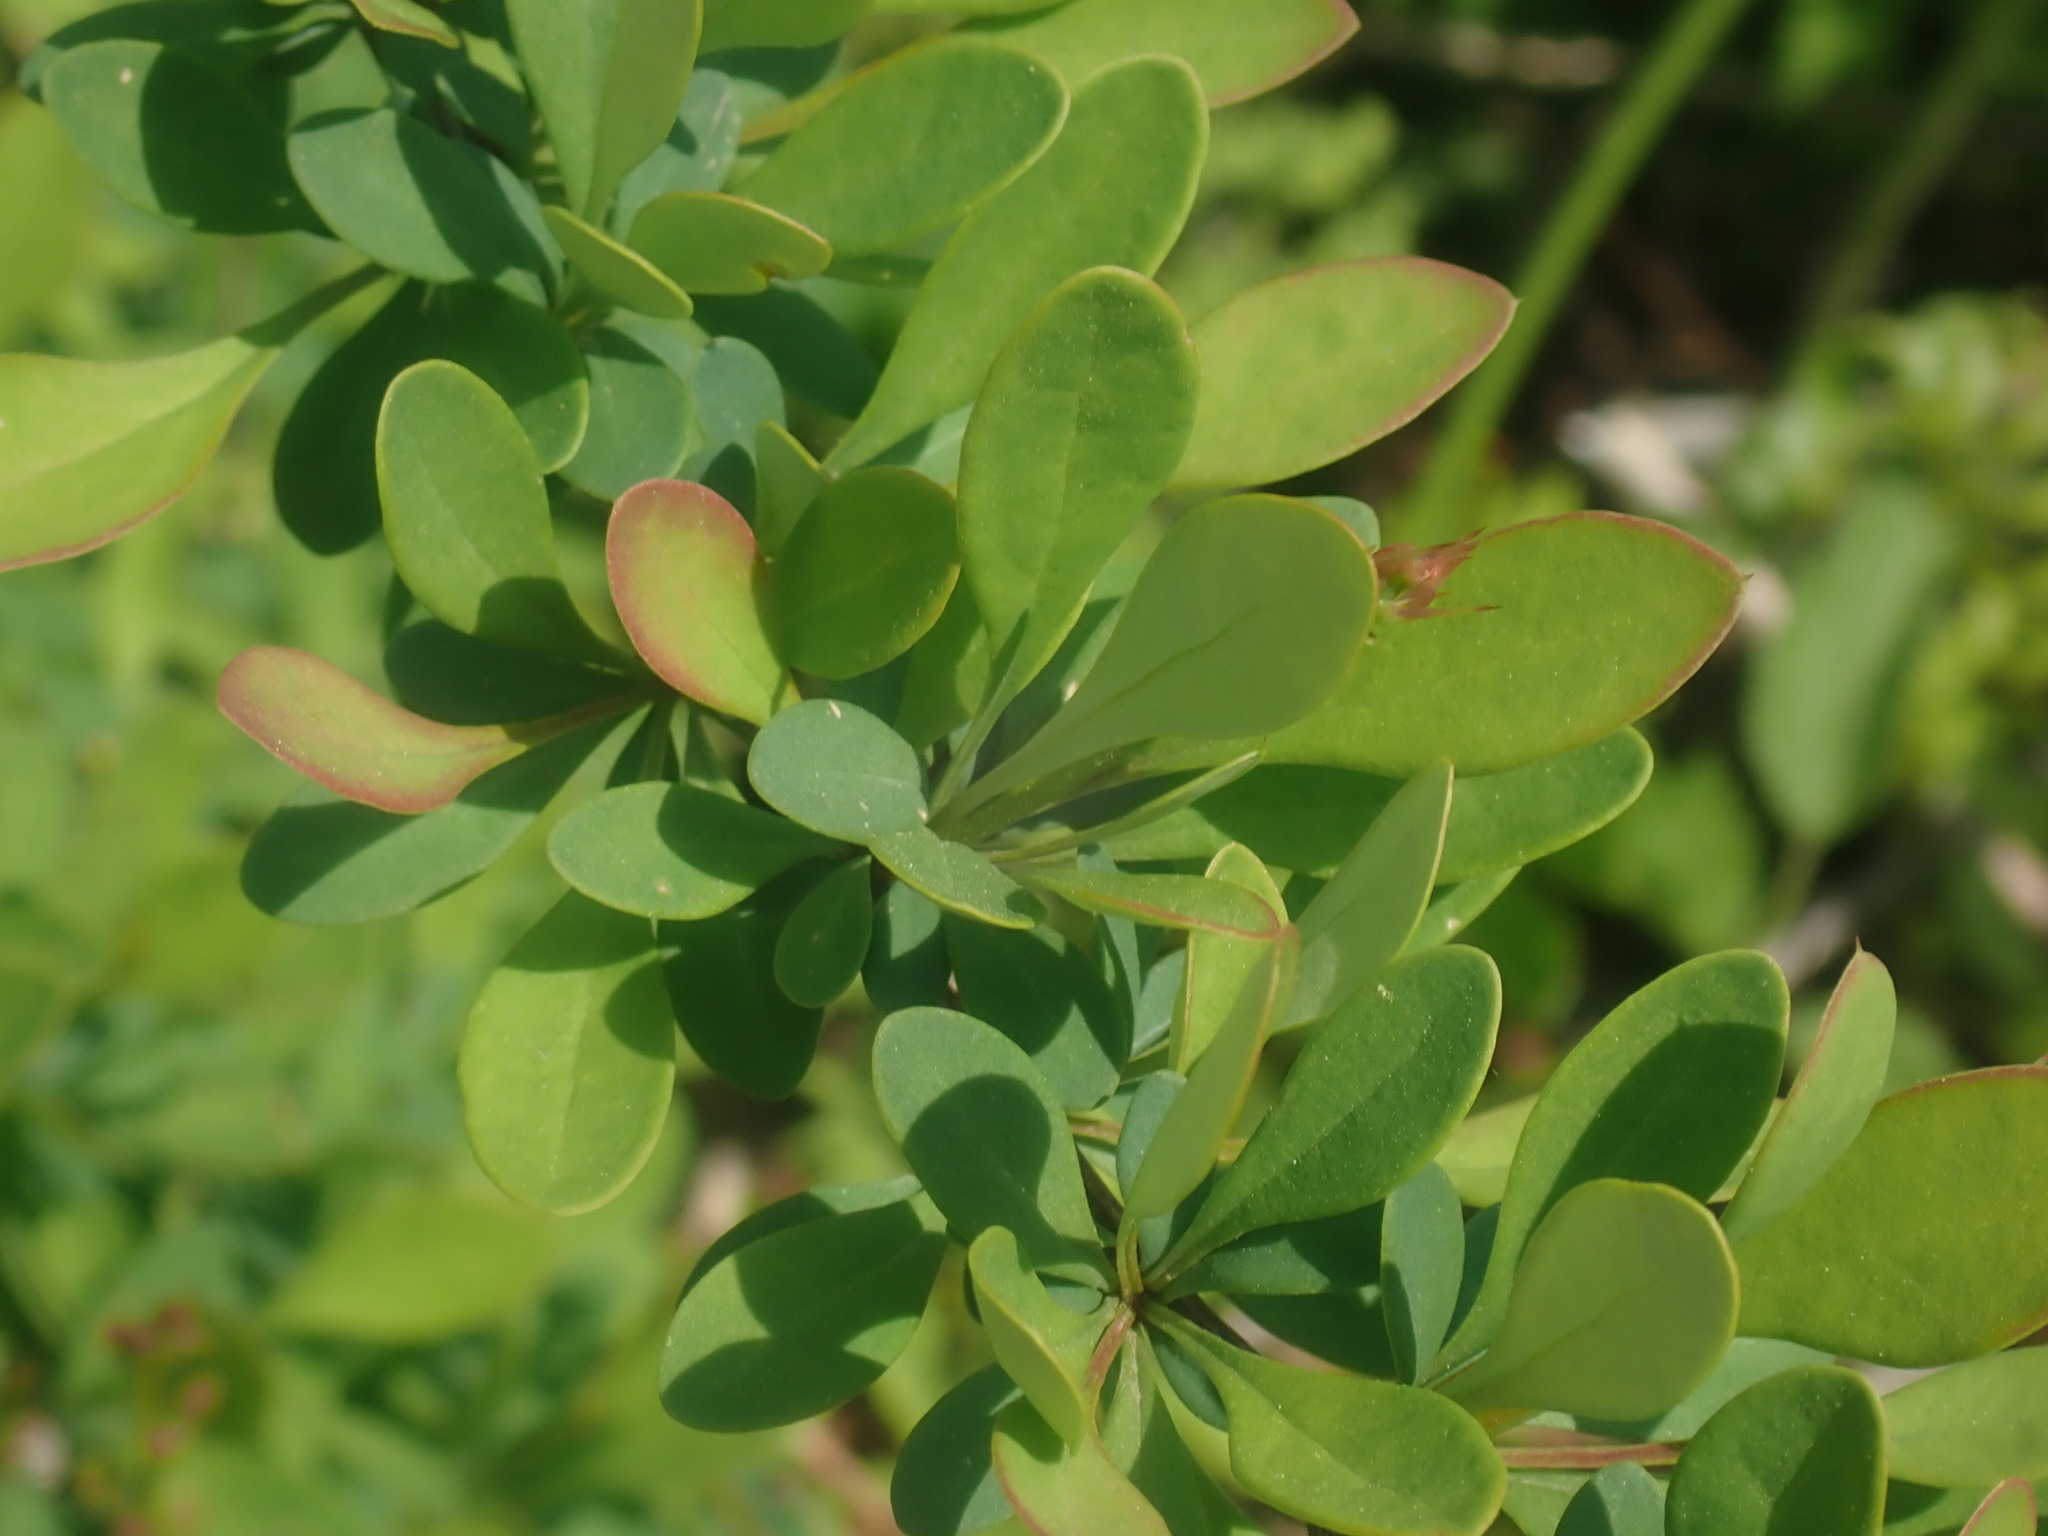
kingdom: Plantae
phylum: Tracheophyta
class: Magnoliopsida
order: Ranunculales
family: Berberidaceae
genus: Berberis
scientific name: Berberis thunbergii
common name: Japanese barberry
